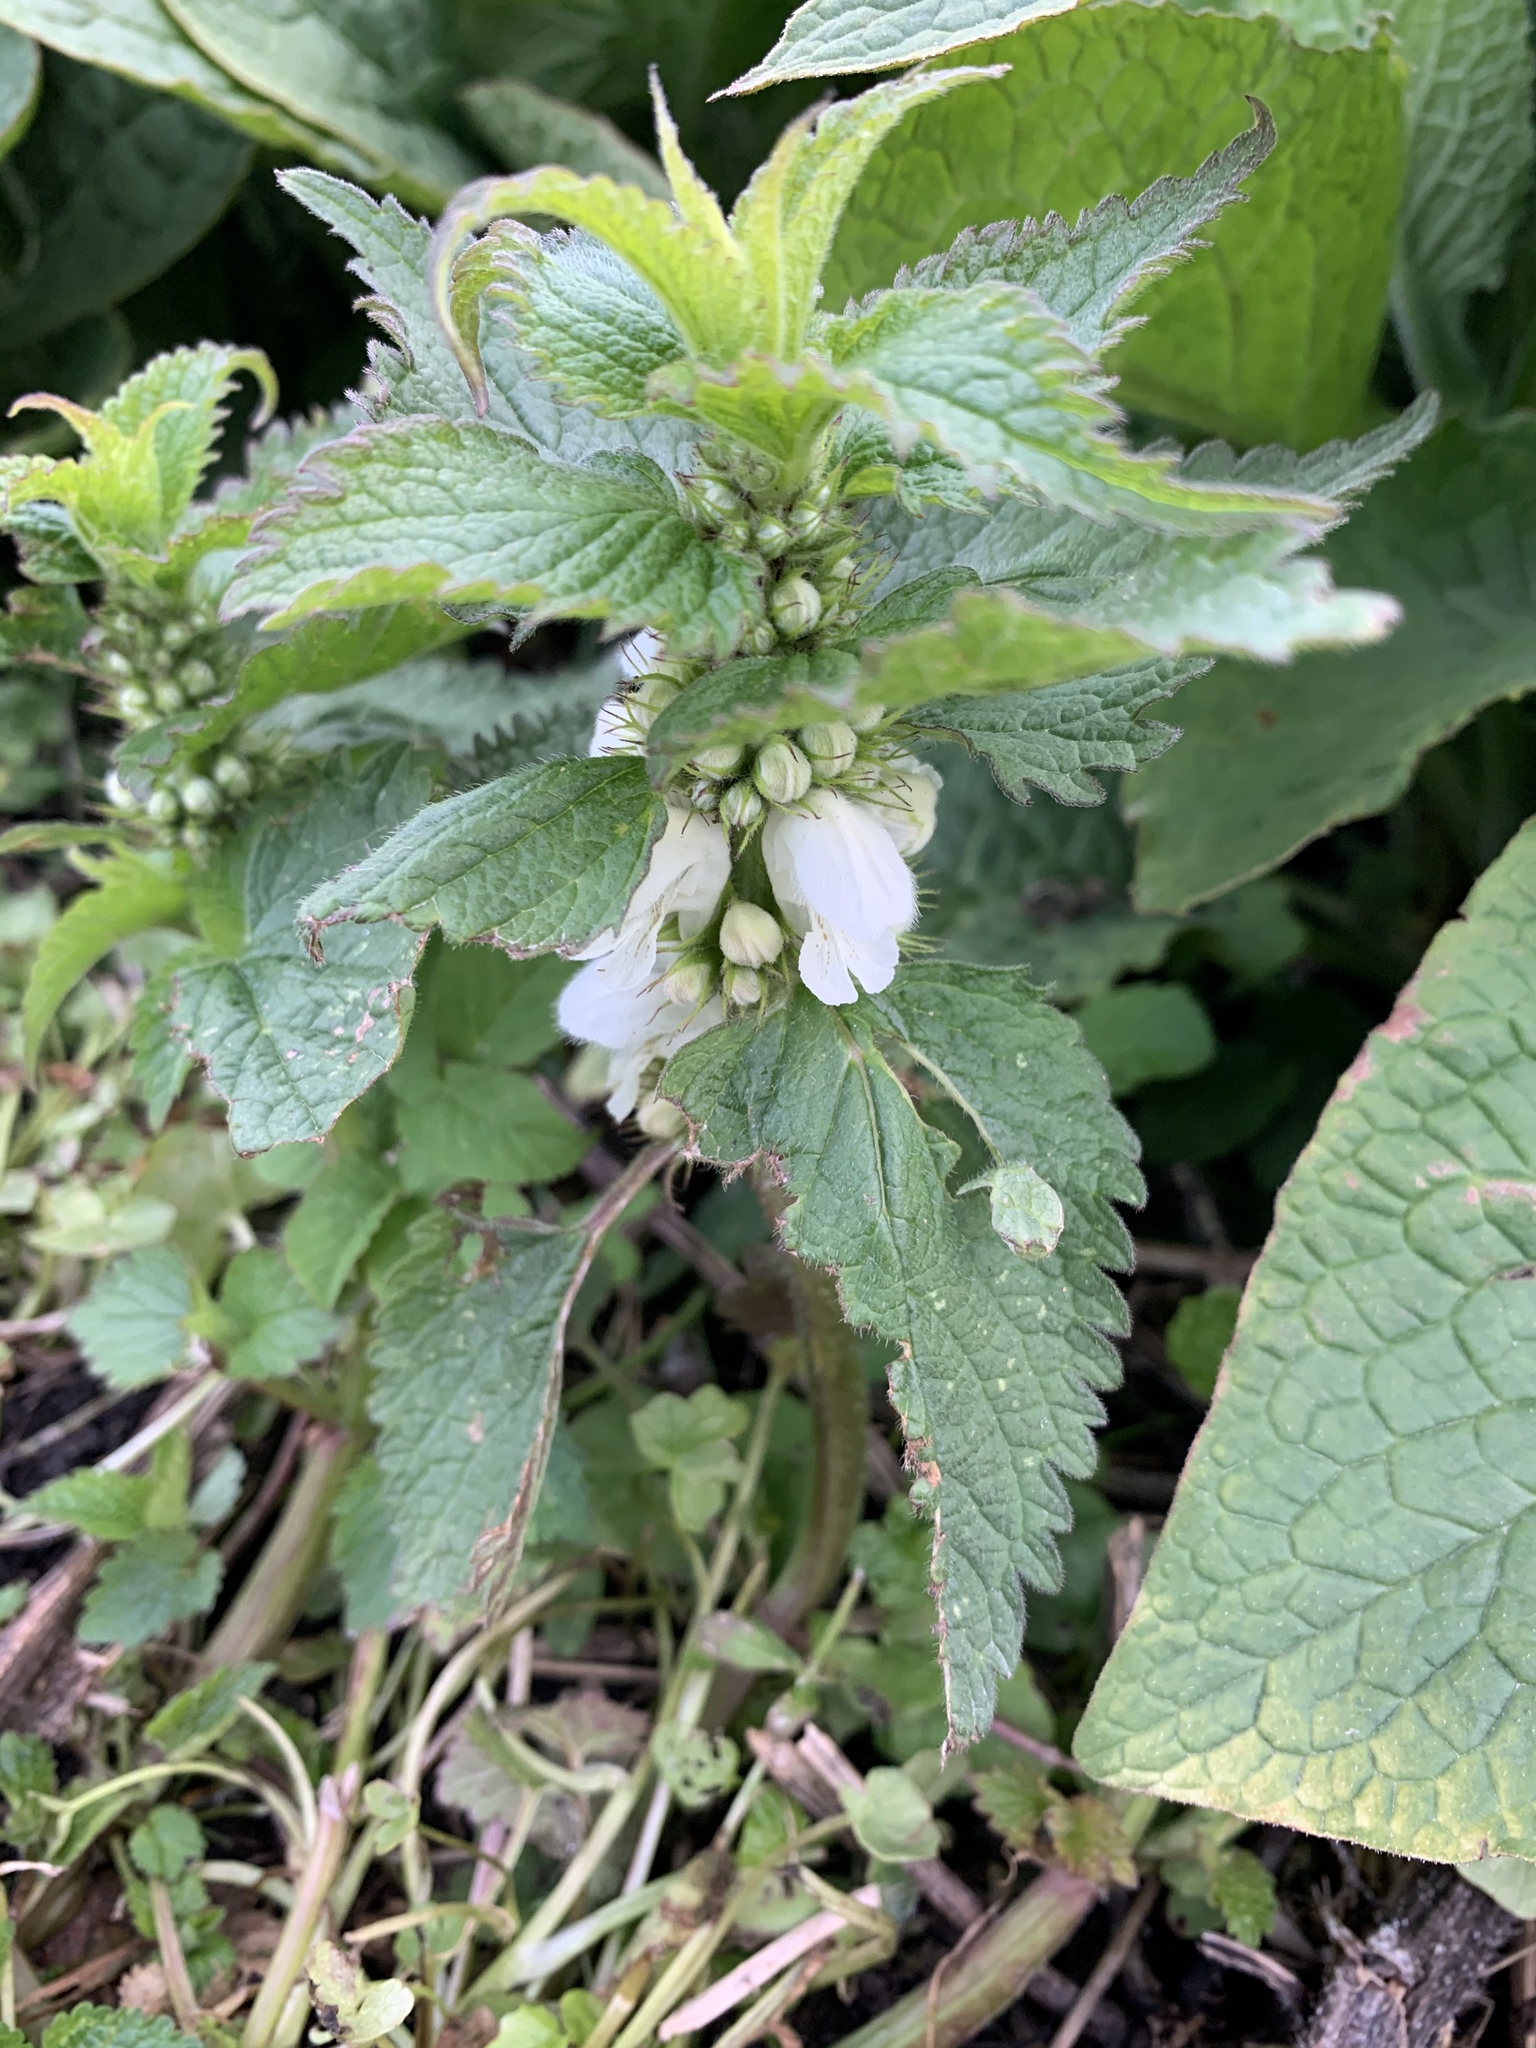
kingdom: Plantae
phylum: Tracheophyta
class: Magnoliopsida
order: Lamiales
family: Lamiaceae
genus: Lamium
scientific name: Lamium album
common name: White dead-nettle
